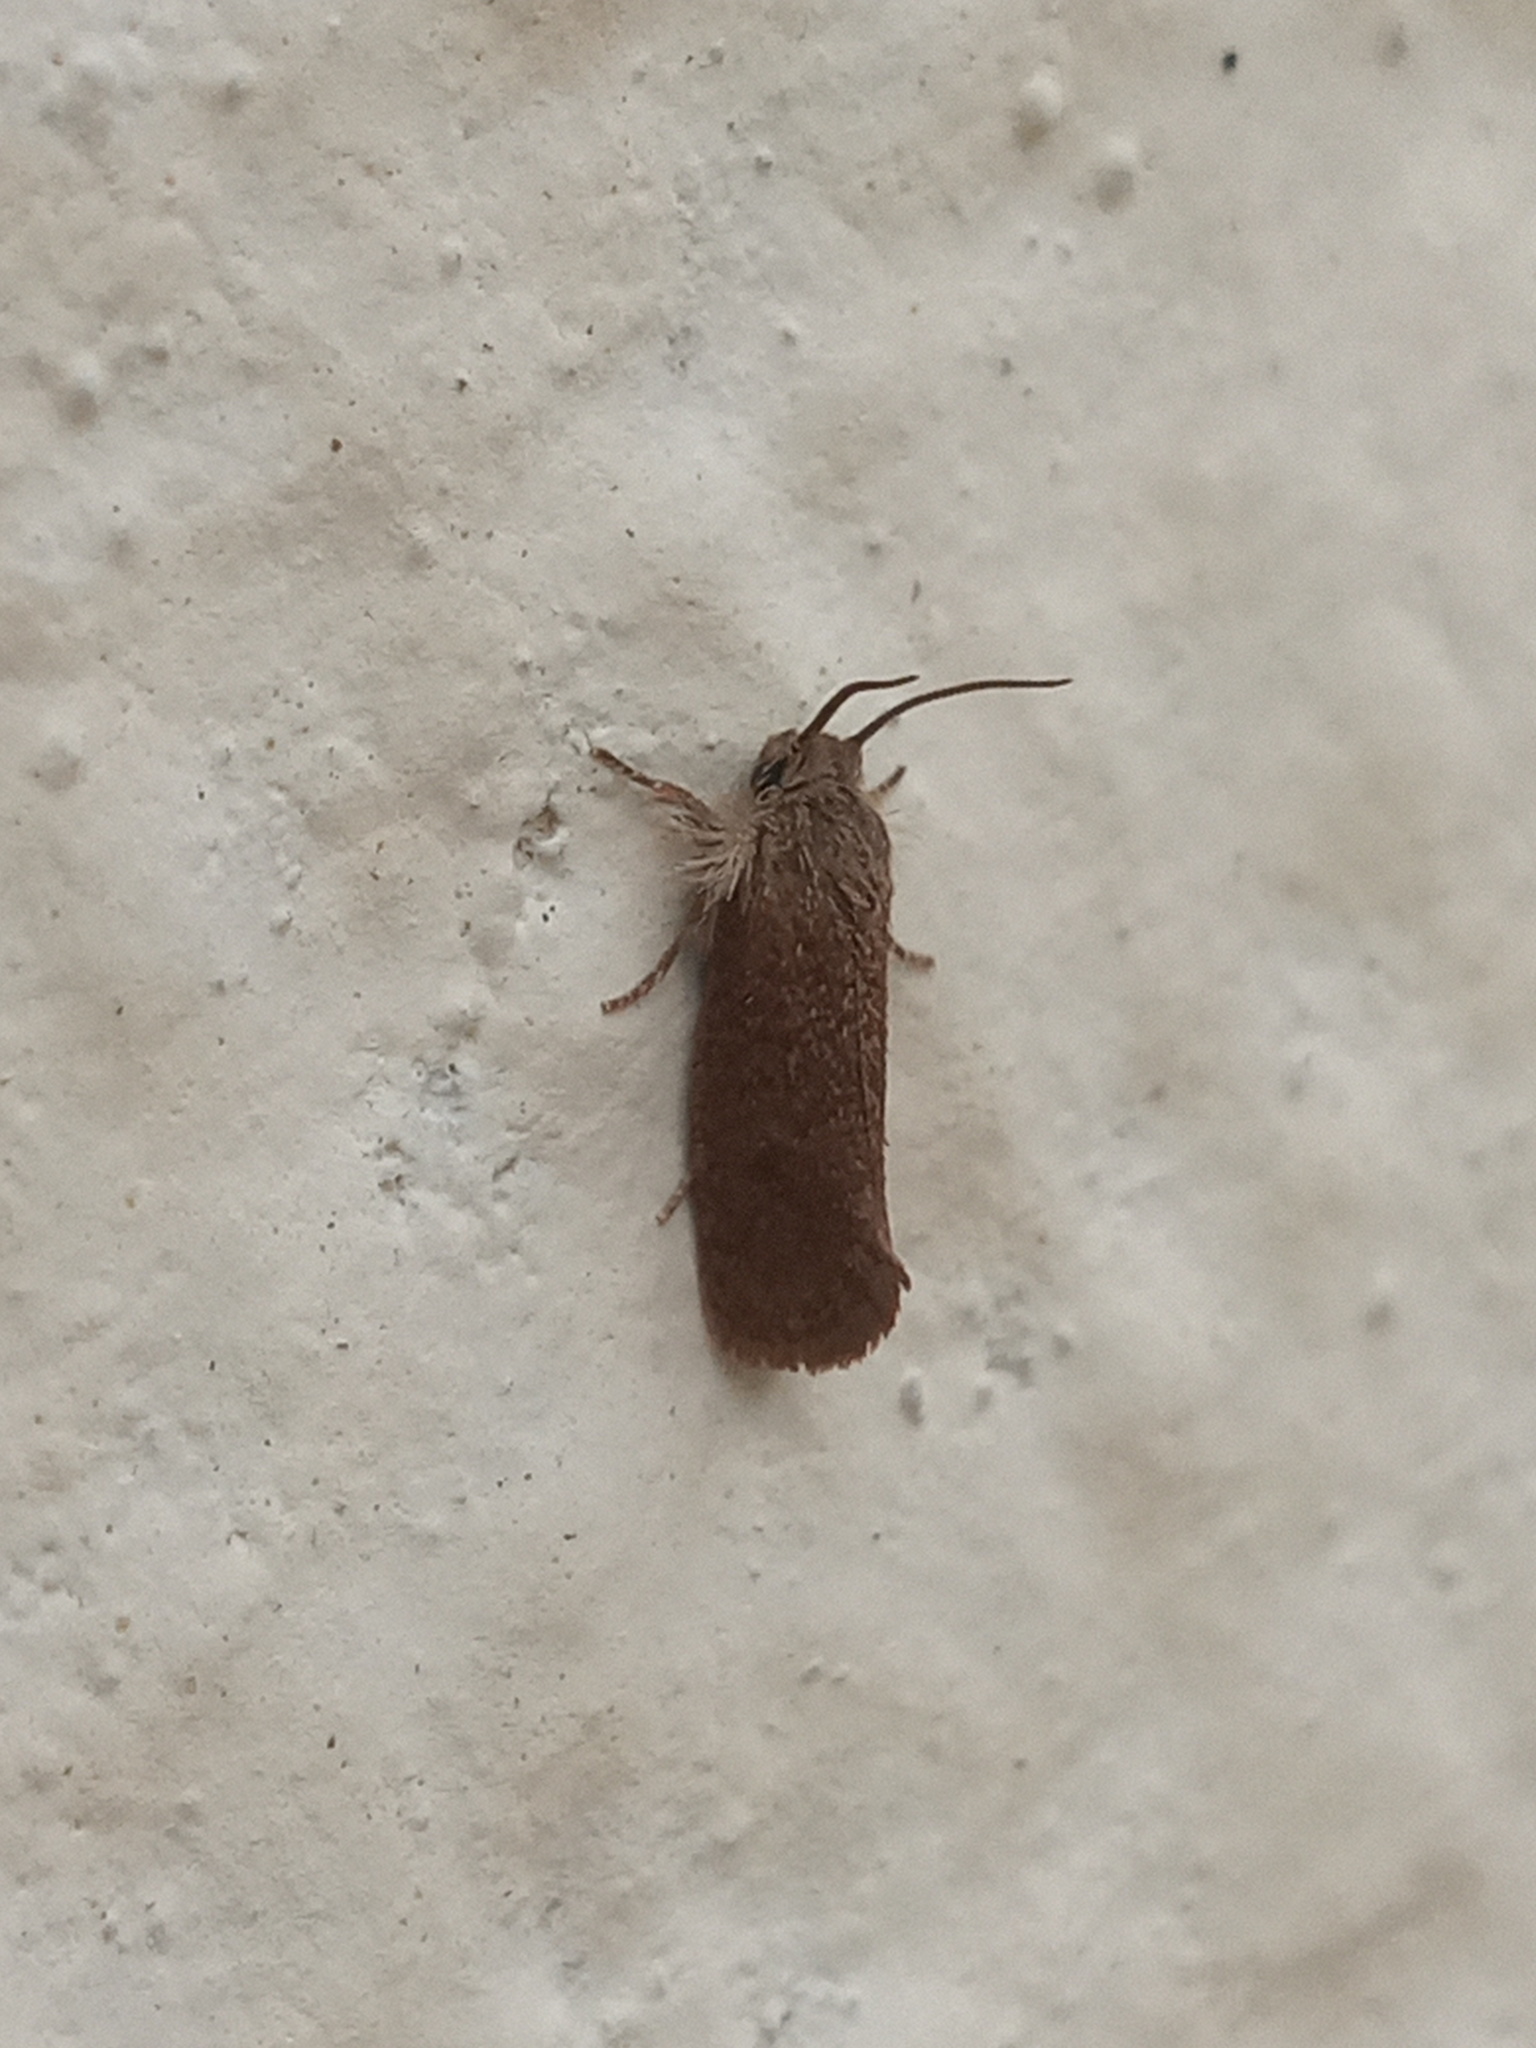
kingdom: Animalia
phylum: Arthropoda
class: Insecta
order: Lepidoptera
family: Tineidae
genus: Acrolophus
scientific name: Acrolophus heppneri
